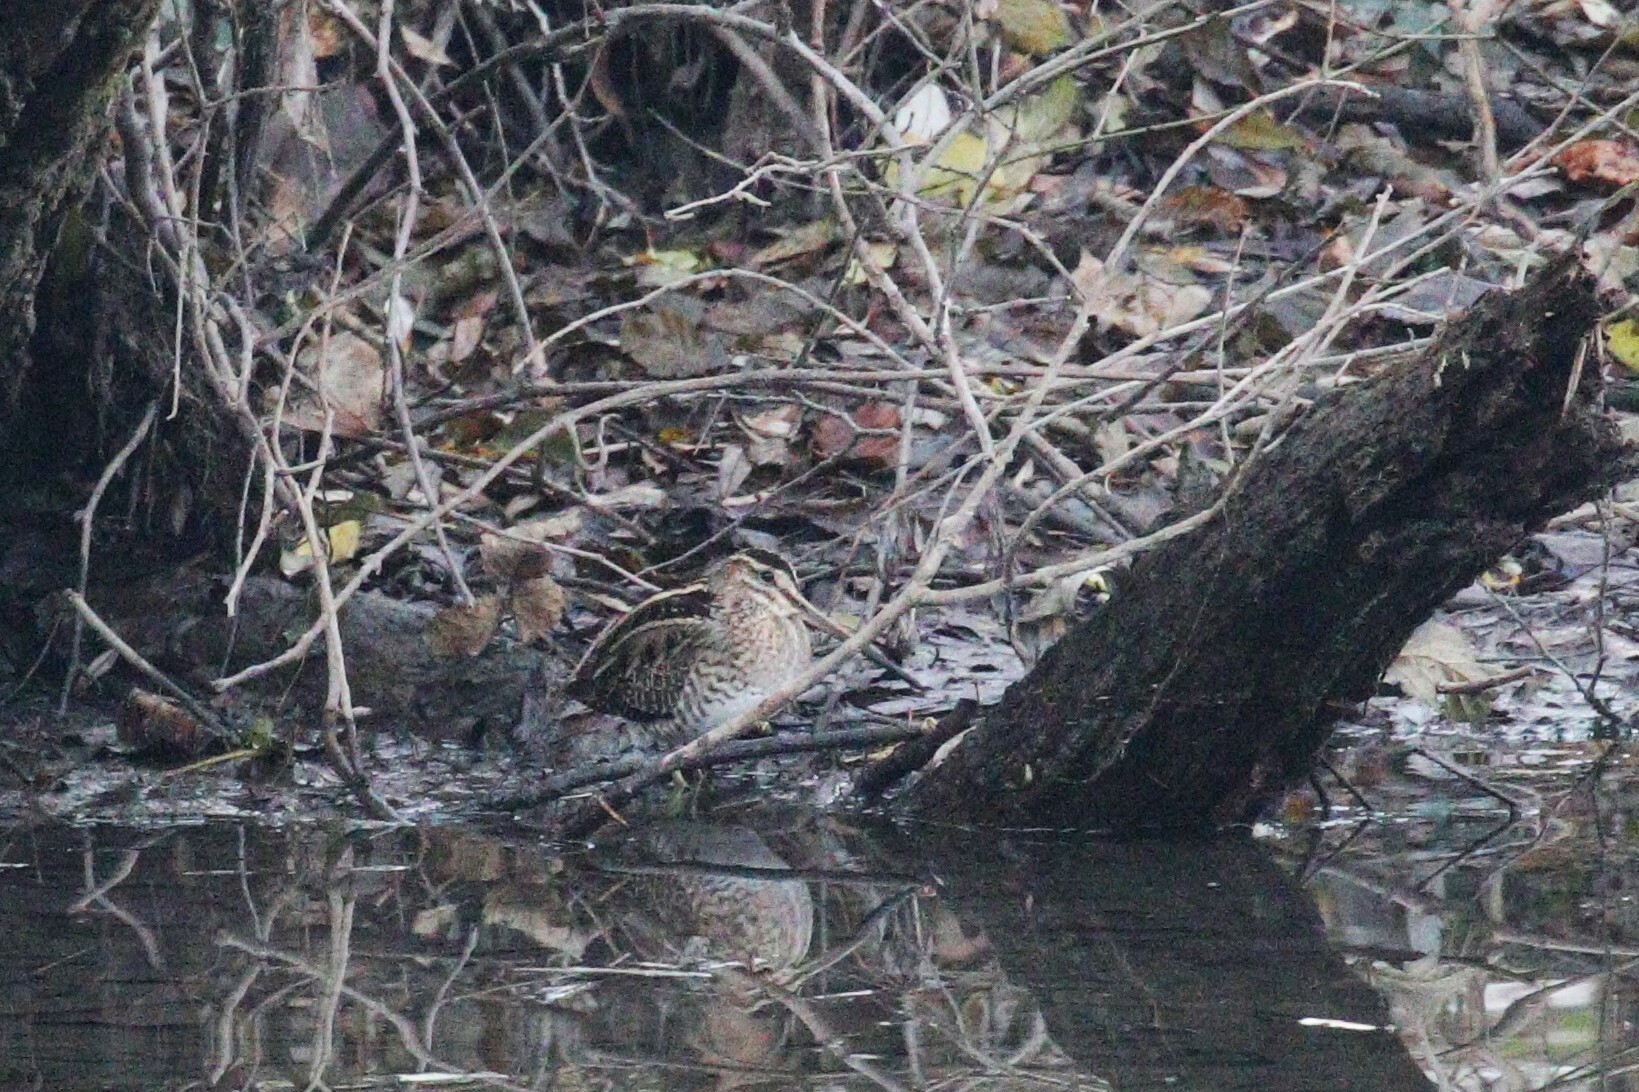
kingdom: Animalia
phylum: Chordata
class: Aves
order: Charadriiformes
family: Scolopacidae
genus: Gallinago
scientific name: Gallinago gallinago
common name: Common snipe
